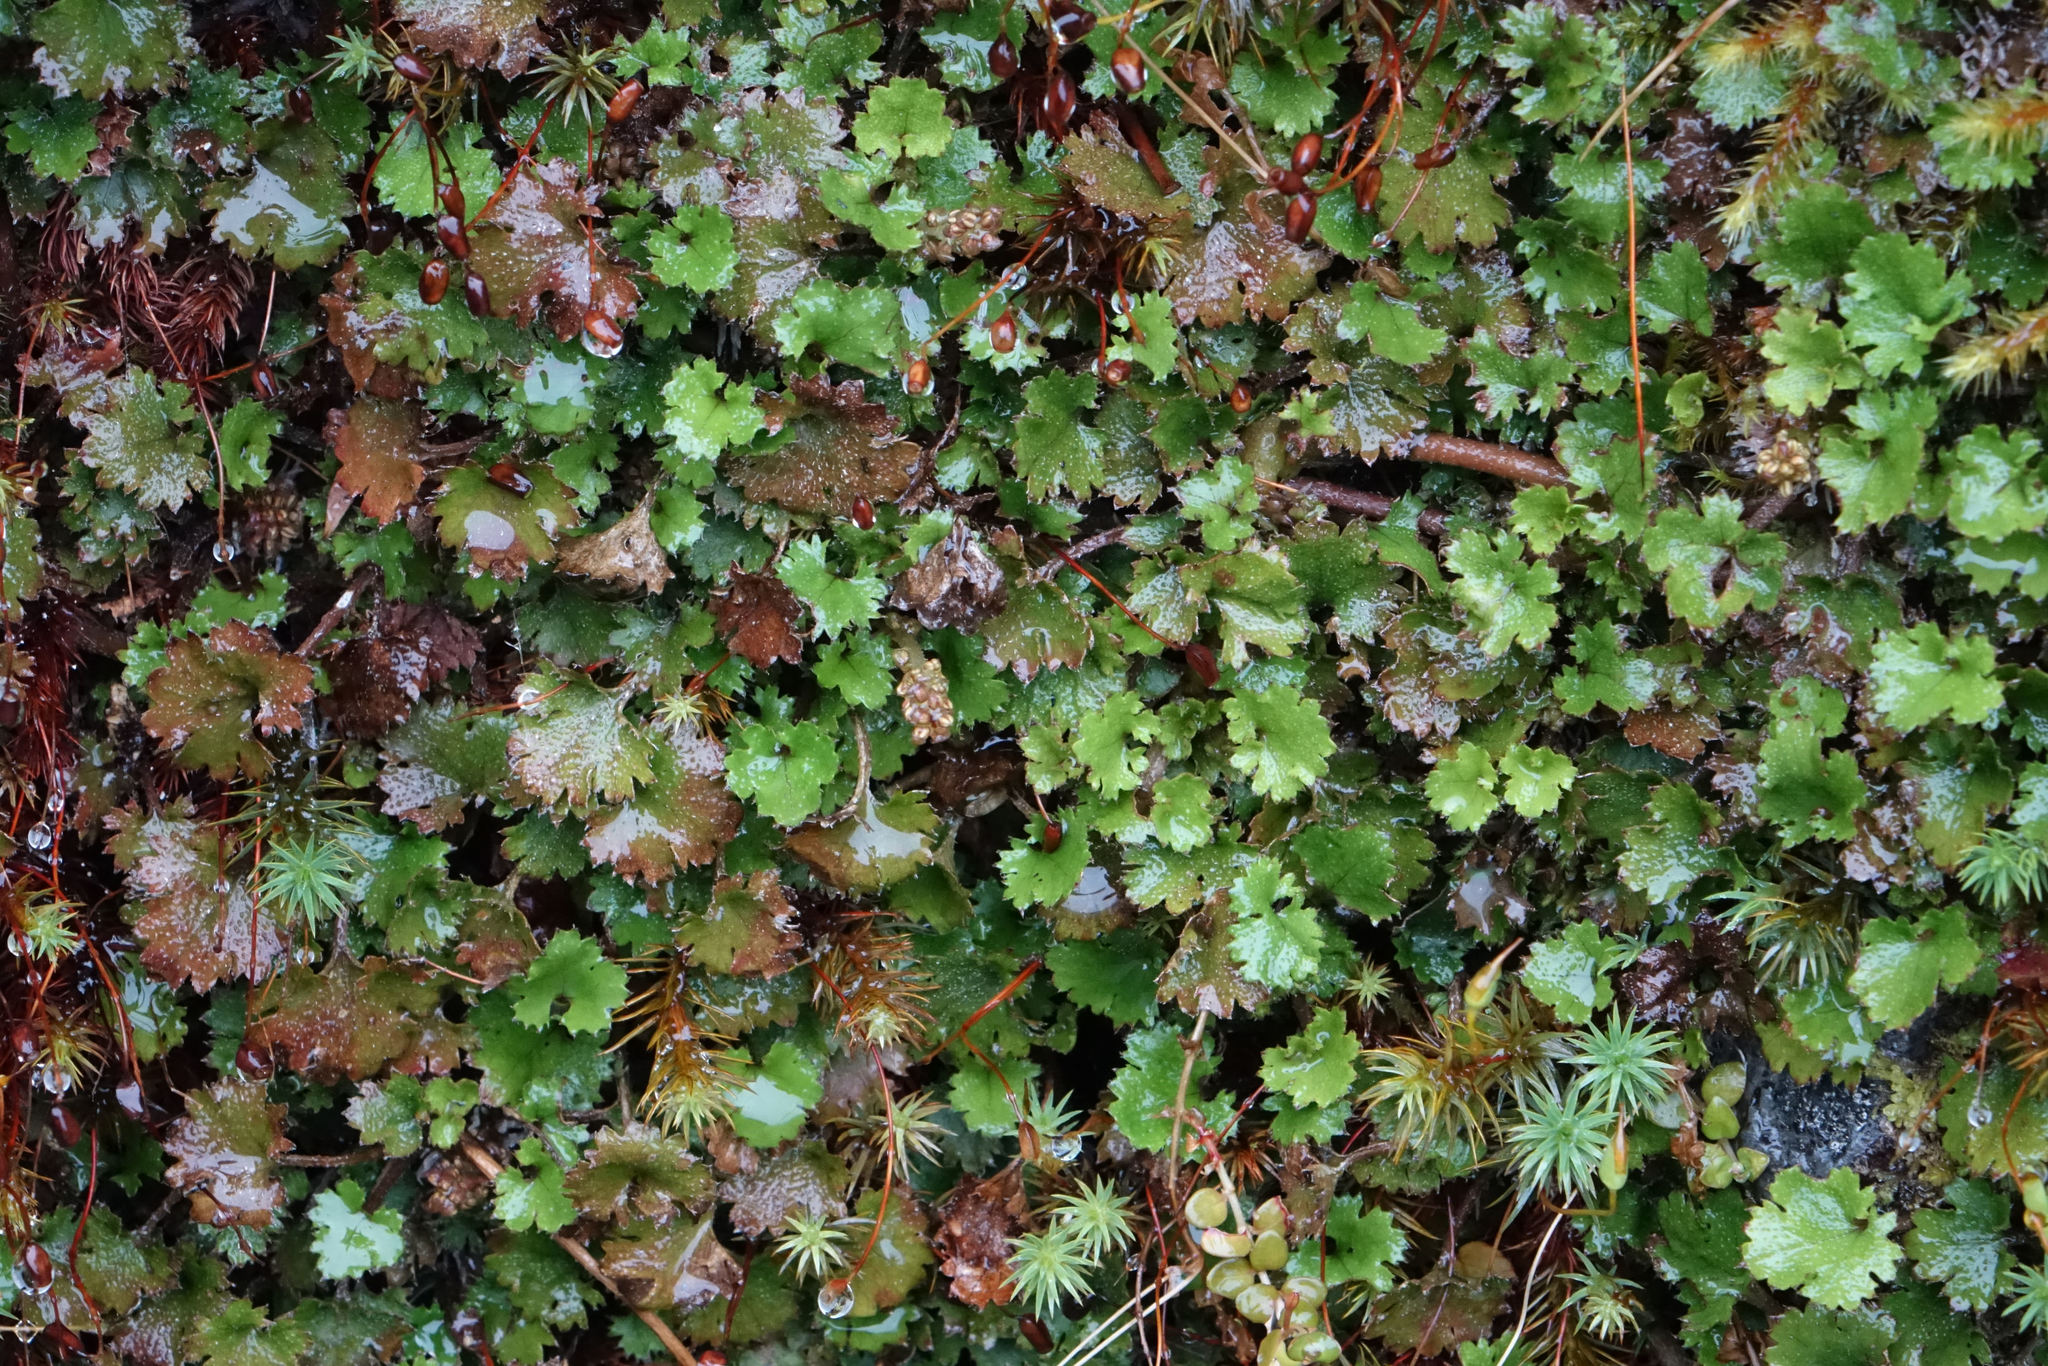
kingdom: Plantae
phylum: Tracheophyta
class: Magnoliopsida
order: Gunnerales
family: Gunneraceae
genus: Gunnera
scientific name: Gunnera monoica
